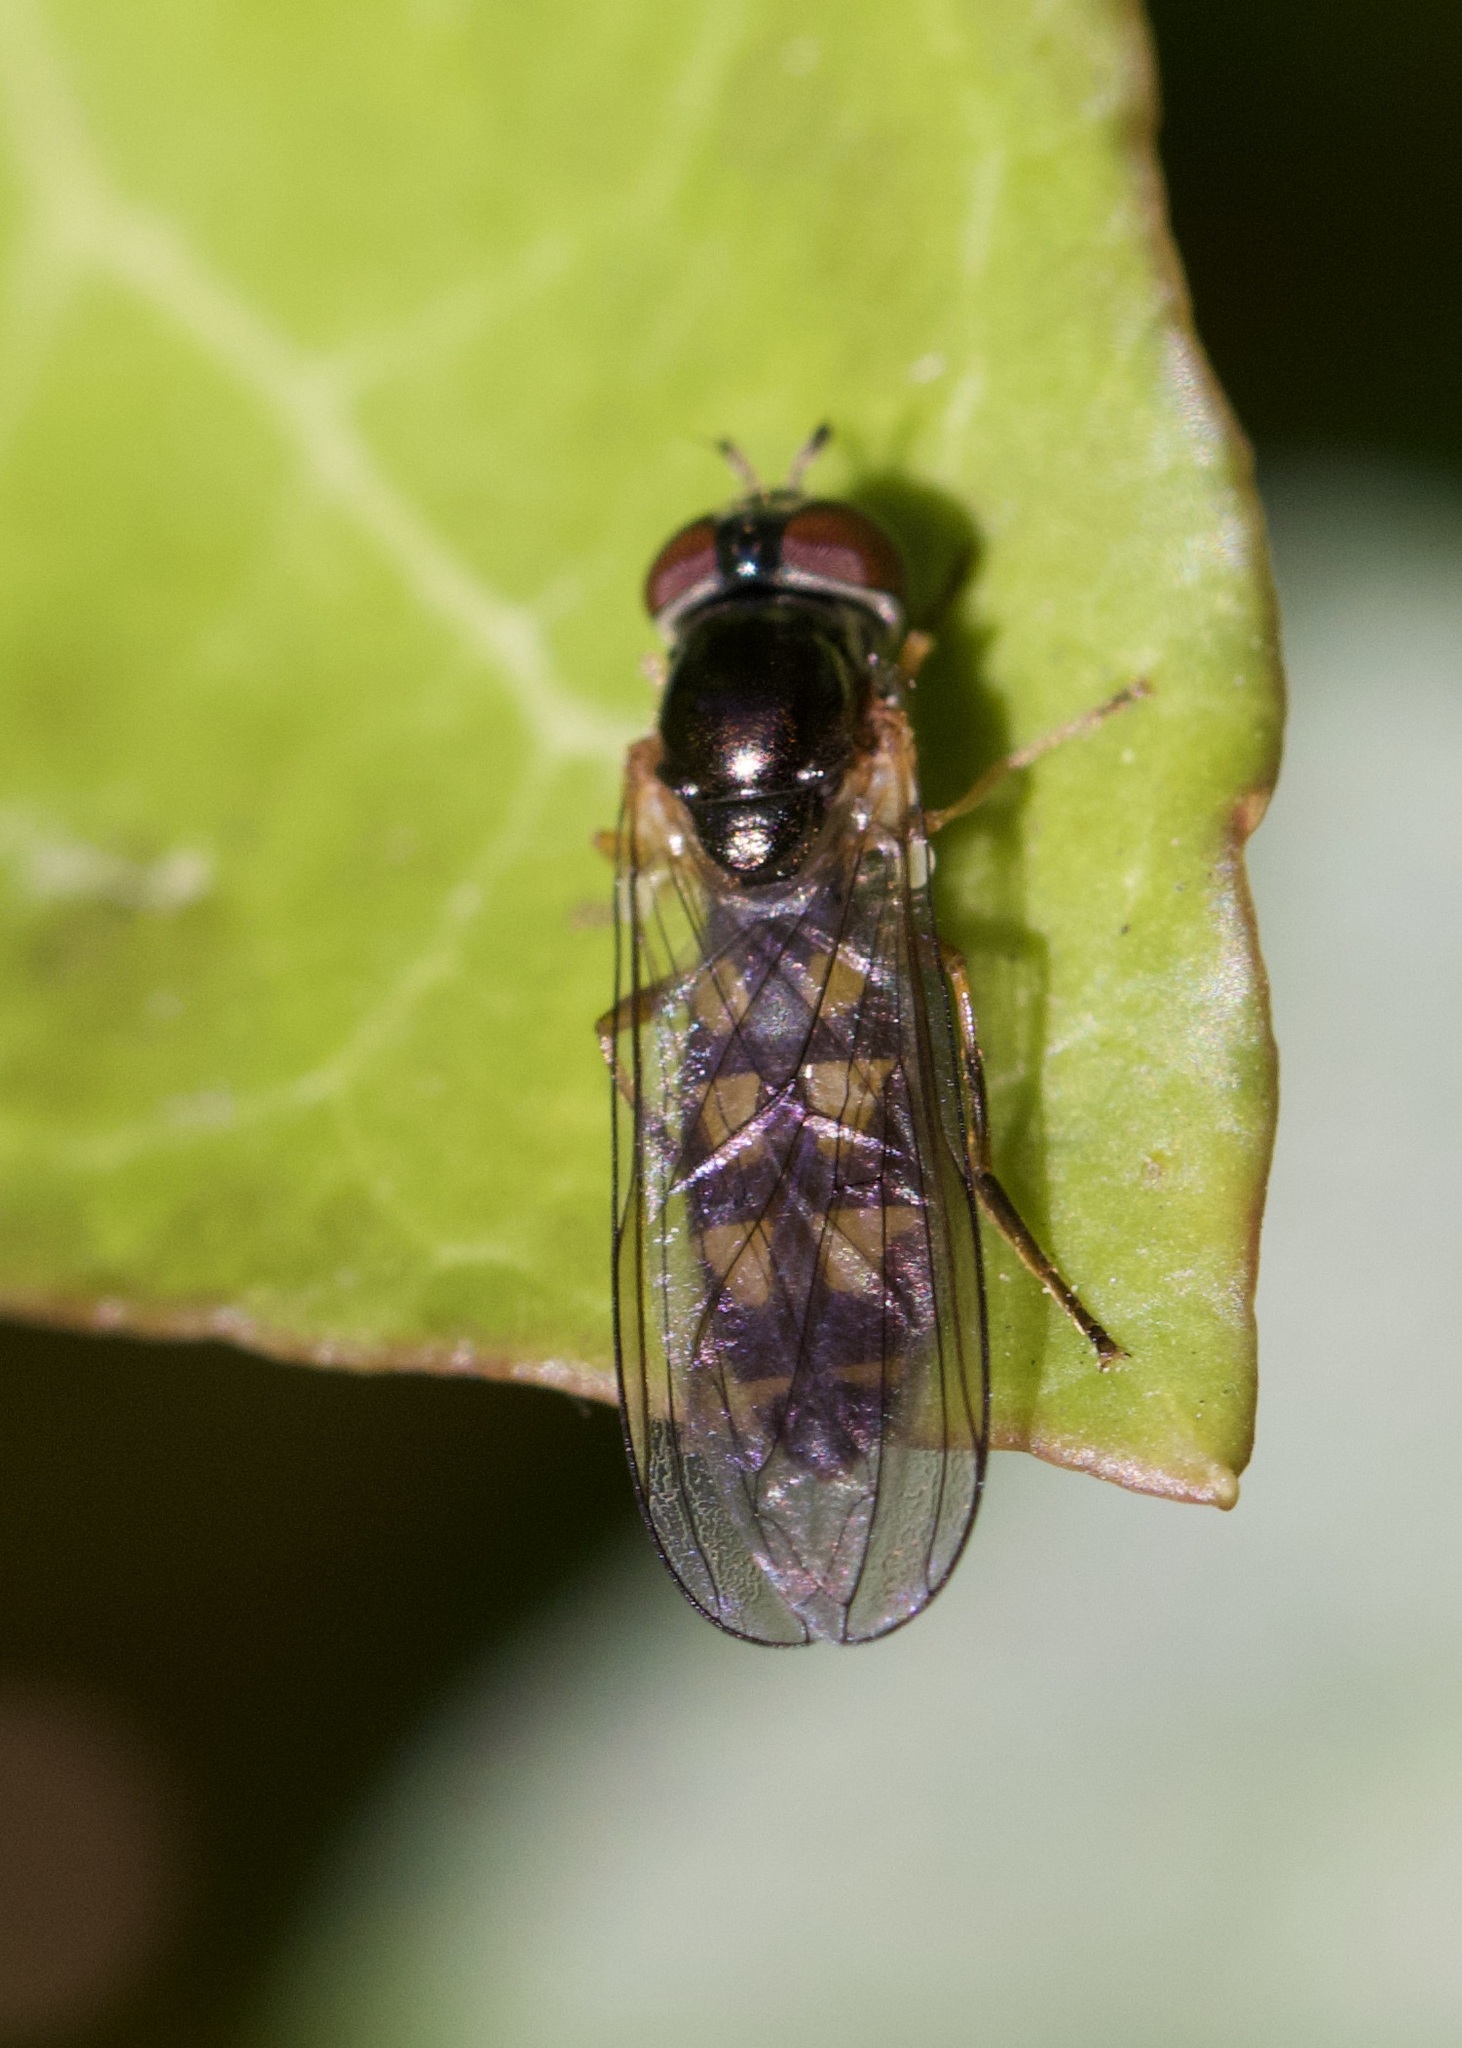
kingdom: Animalia
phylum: Arthropoda
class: Insecta
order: Diptera
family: Syrphidae
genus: Melanostoma
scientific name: Melanostoma scalare
